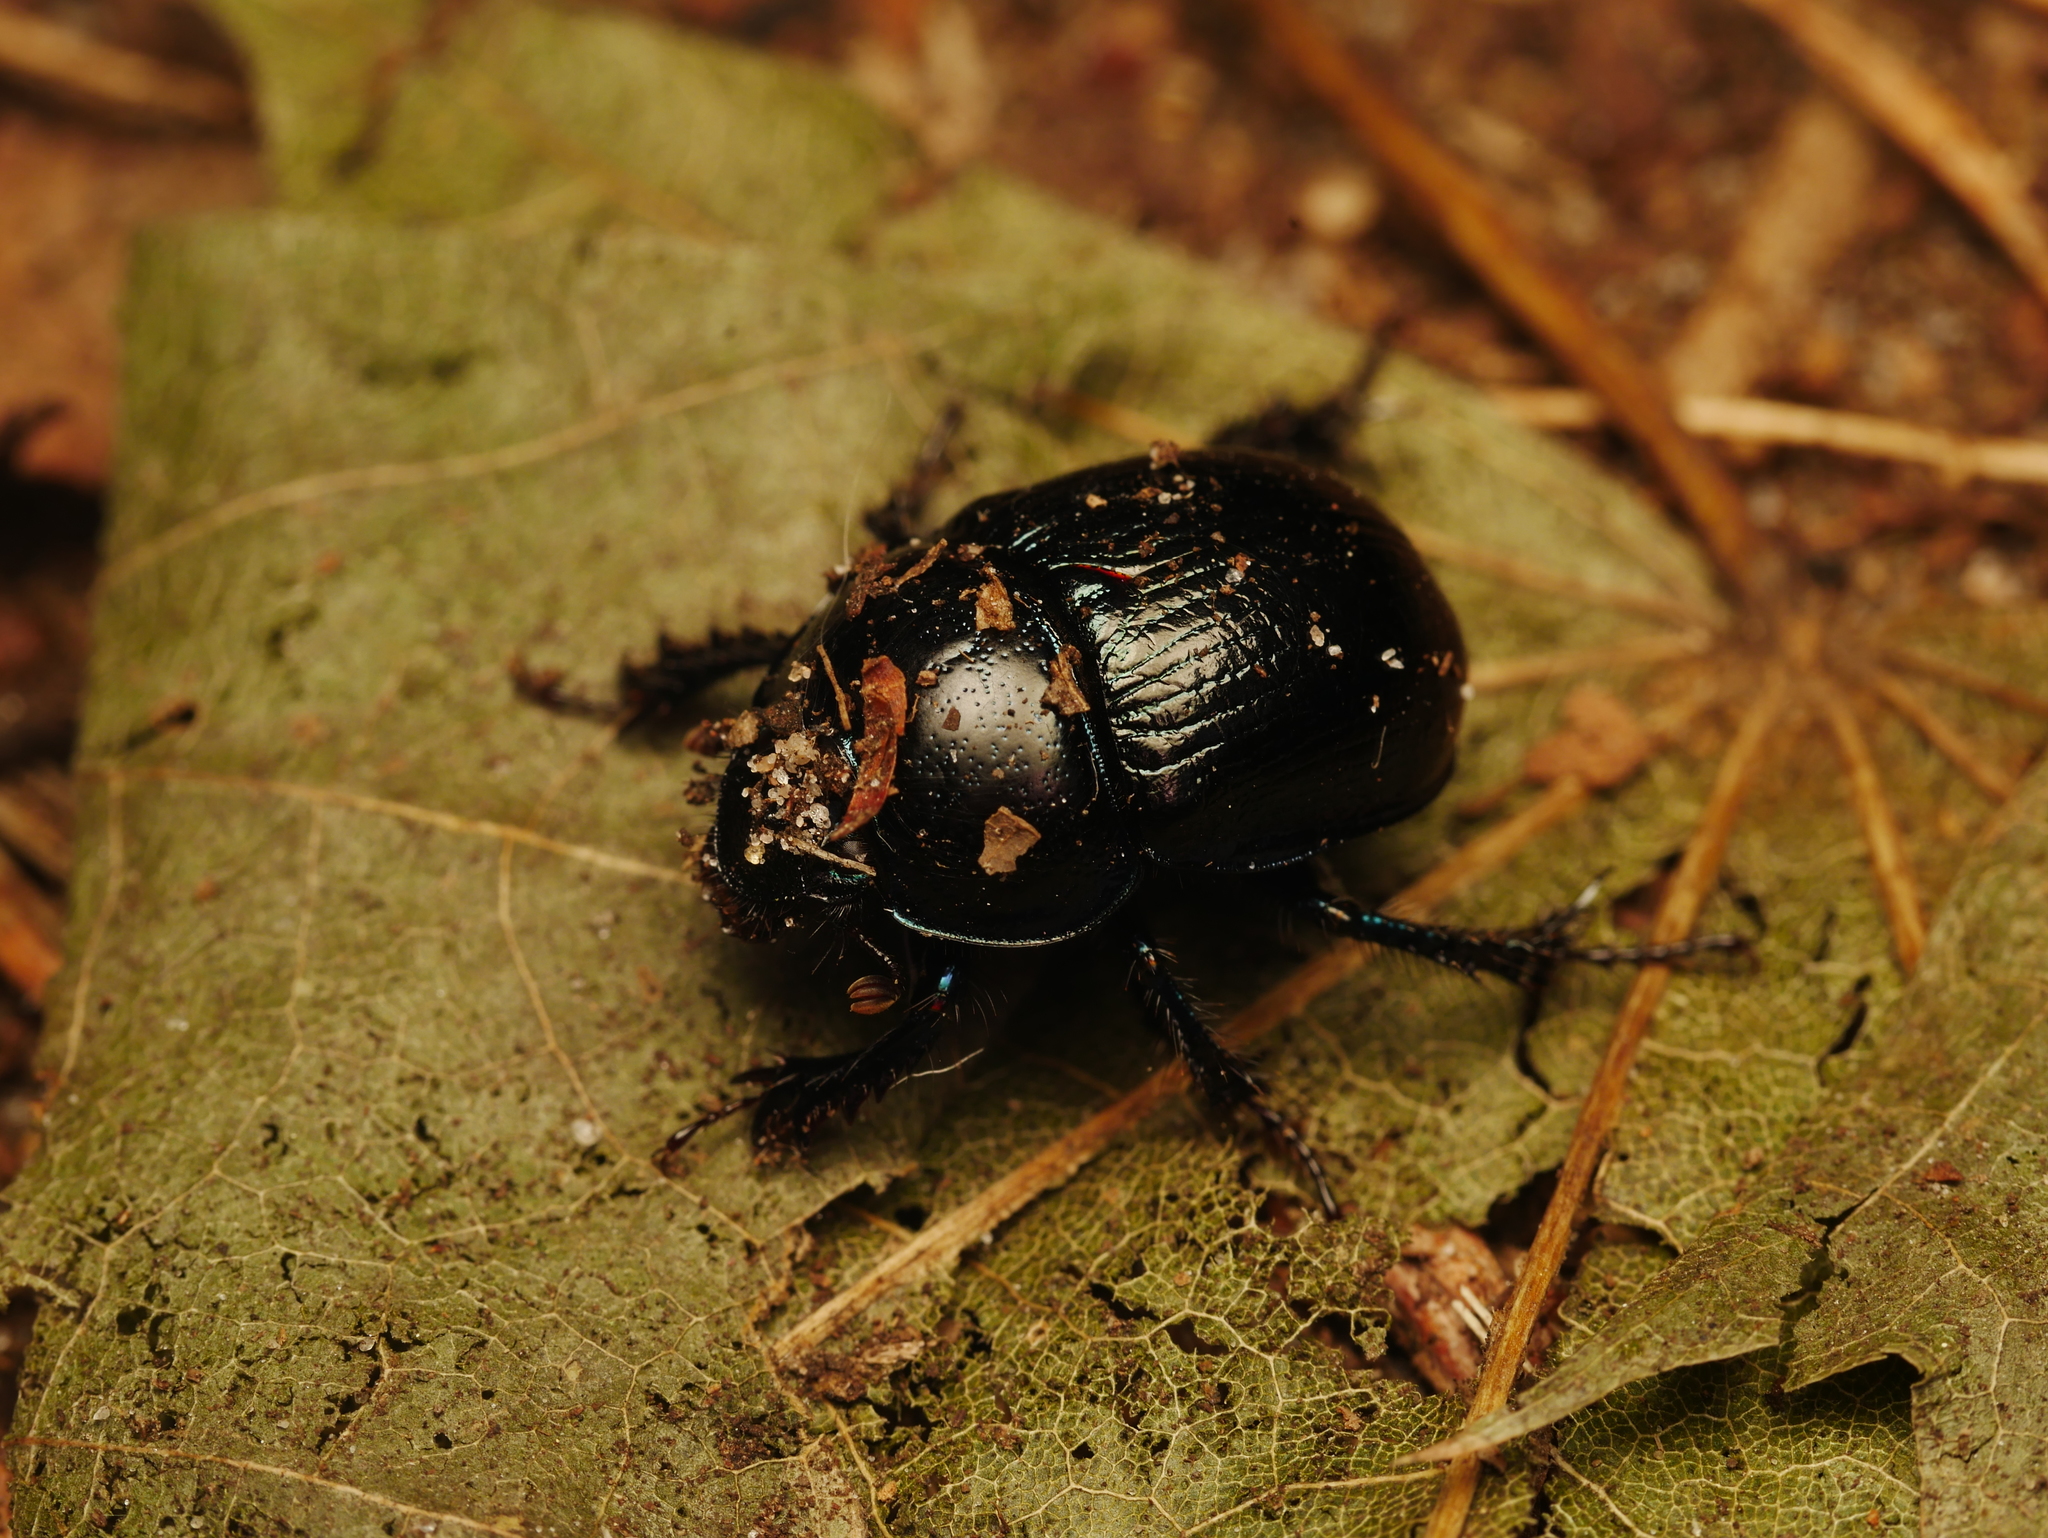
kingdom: Animalia
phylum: Arthropoda
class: Insecta
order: Coleoptera
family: Geotrupidae
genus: Anoplotrupes
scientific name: Anoplotrupes stercorosus
